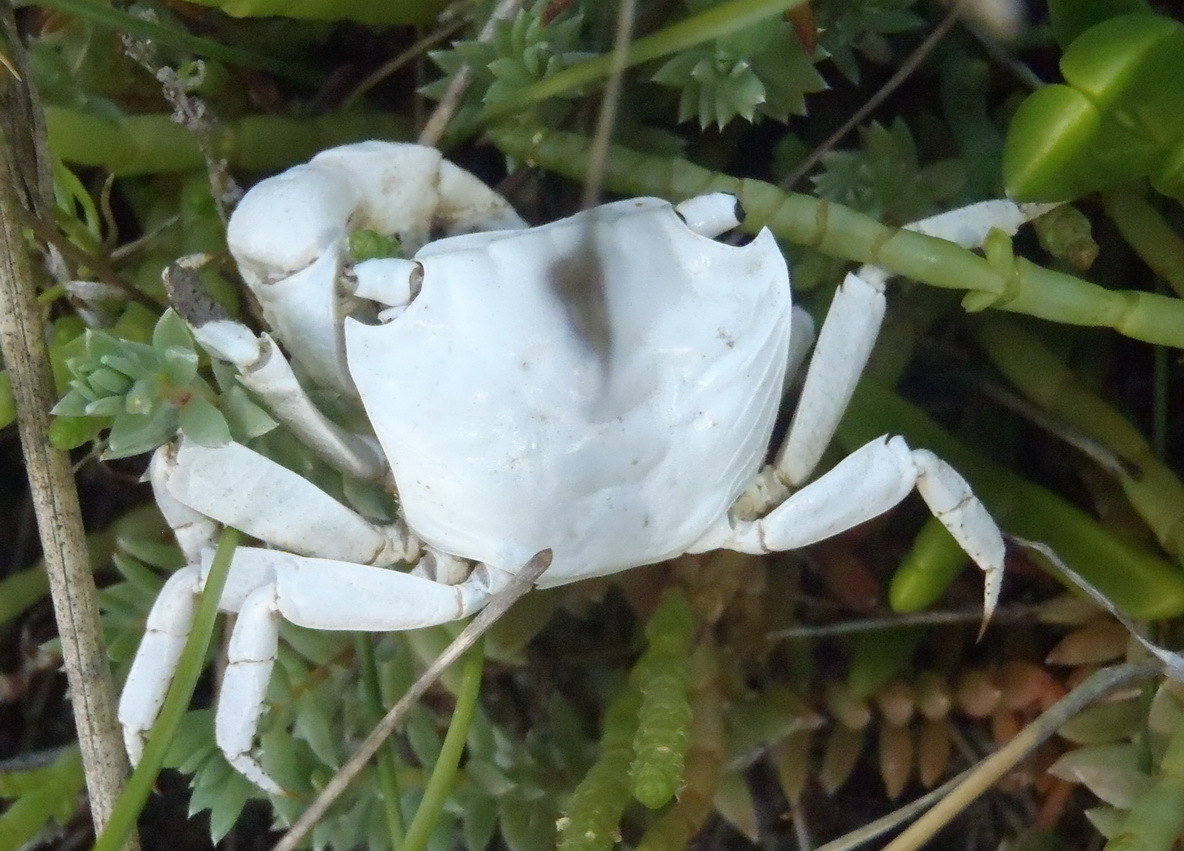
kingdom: Animalia
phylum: Arthropoda
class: Malacostraca
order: Decapoda
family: Sesarmidae
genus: Parasesarma
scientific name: Parasesarma catenatum
